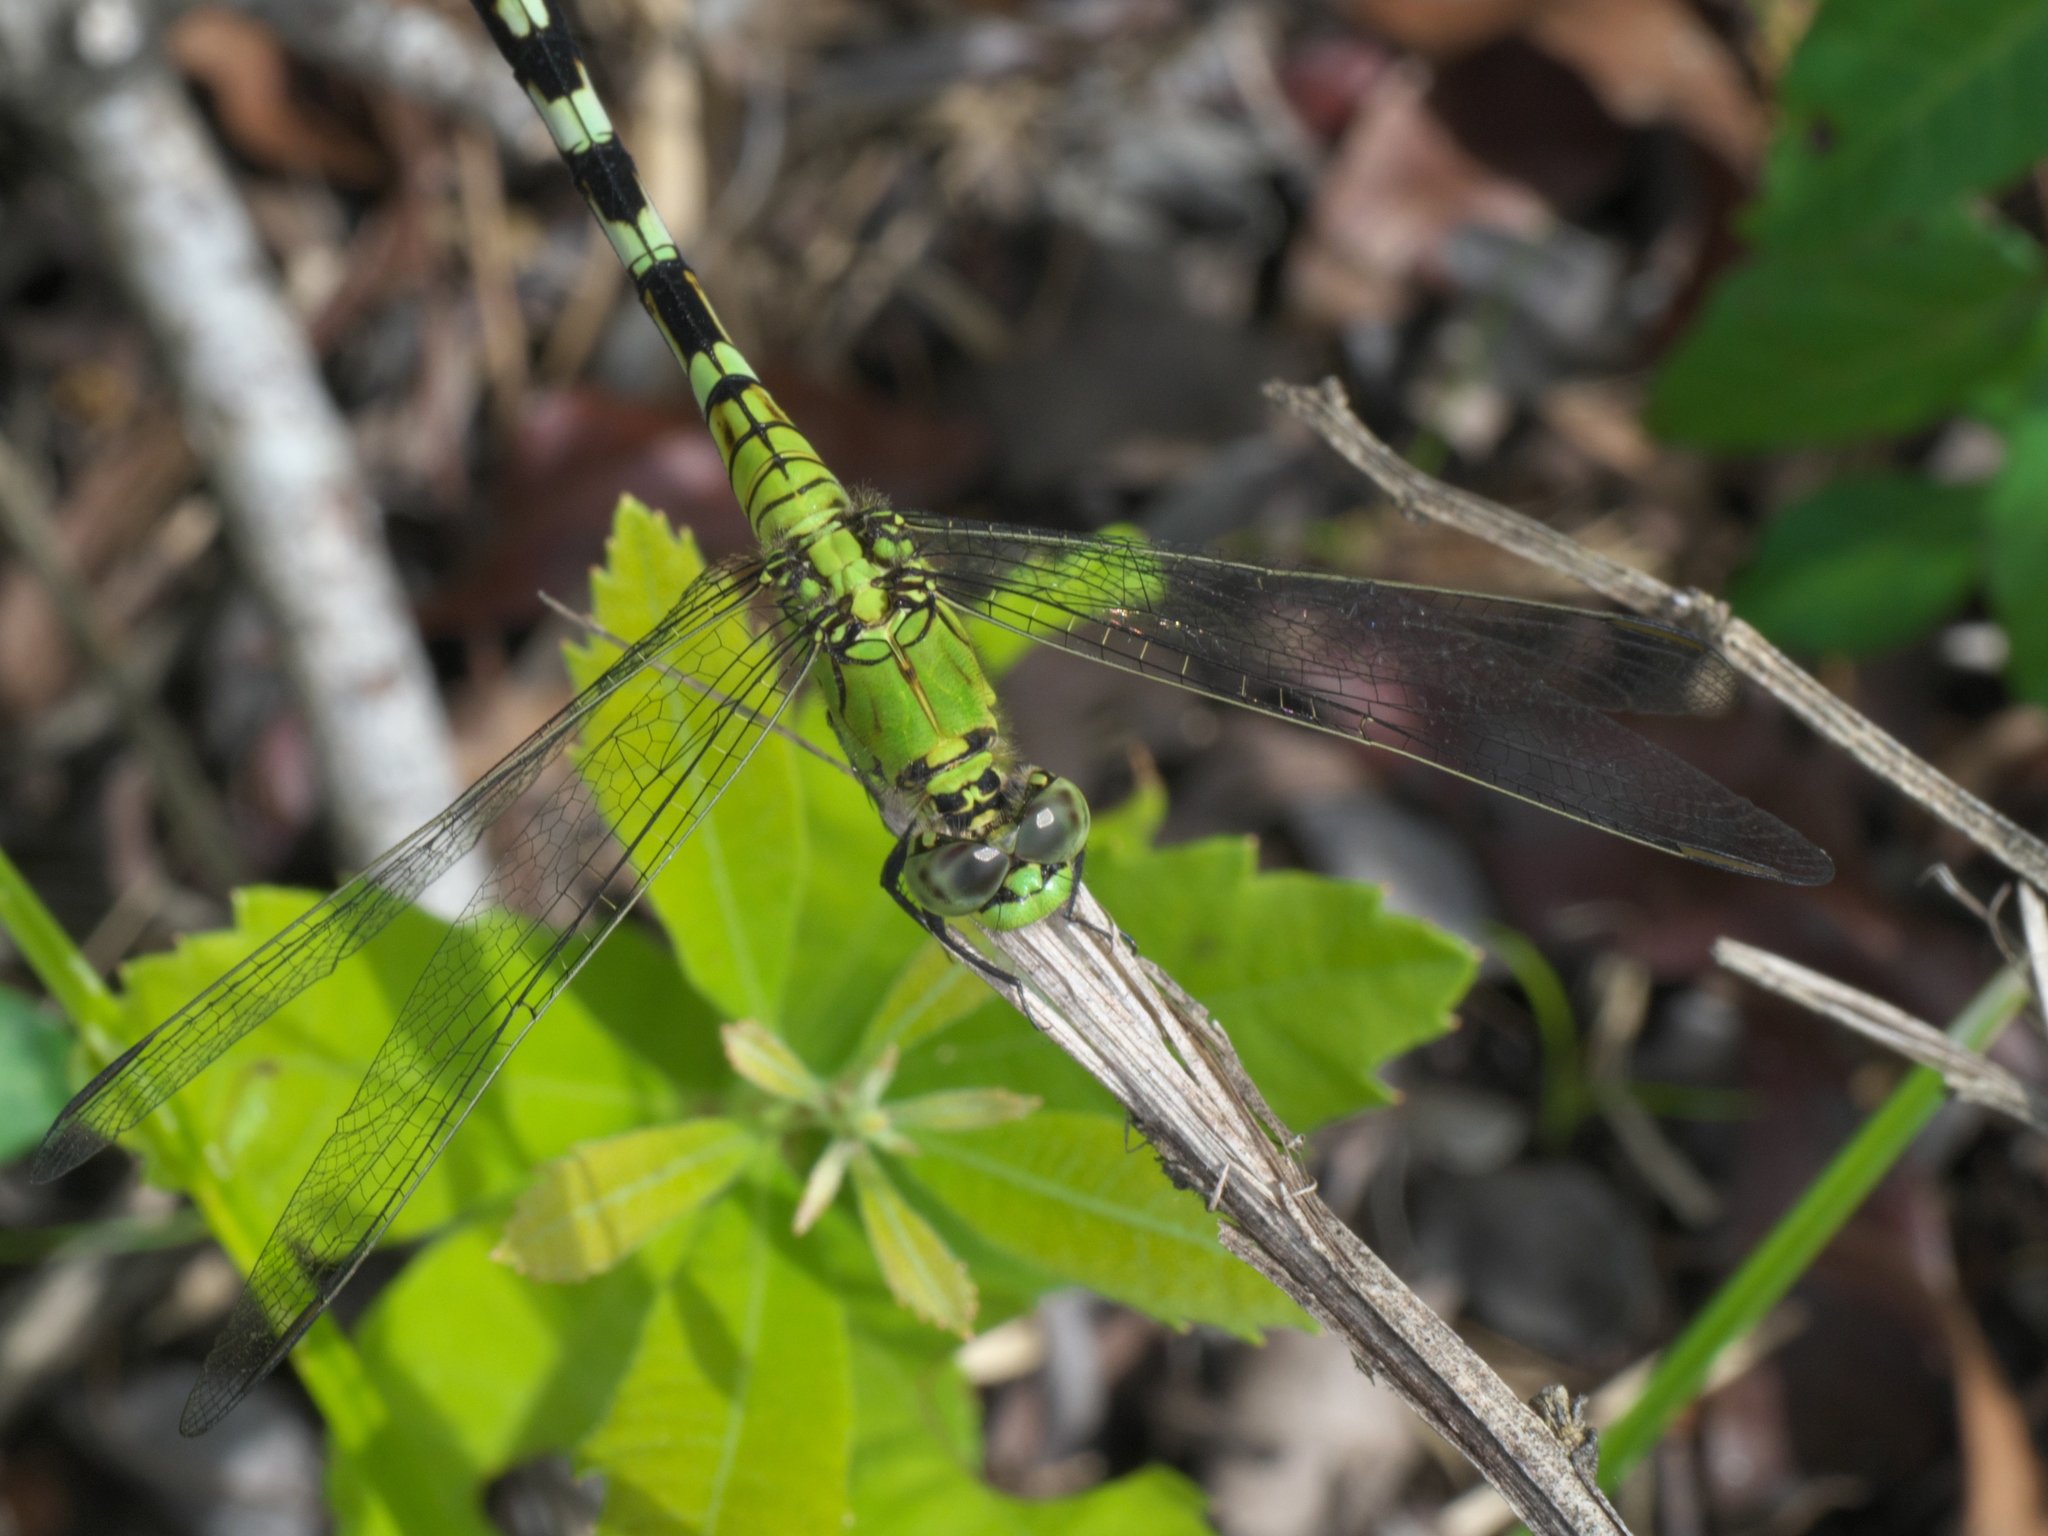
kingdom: Animalia
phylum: Arthropoda
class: Insecta
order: Odonata
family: Libellulidae
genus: Erythemis
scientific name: Erythemis simplicicollis
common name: Eastern pondhawk
